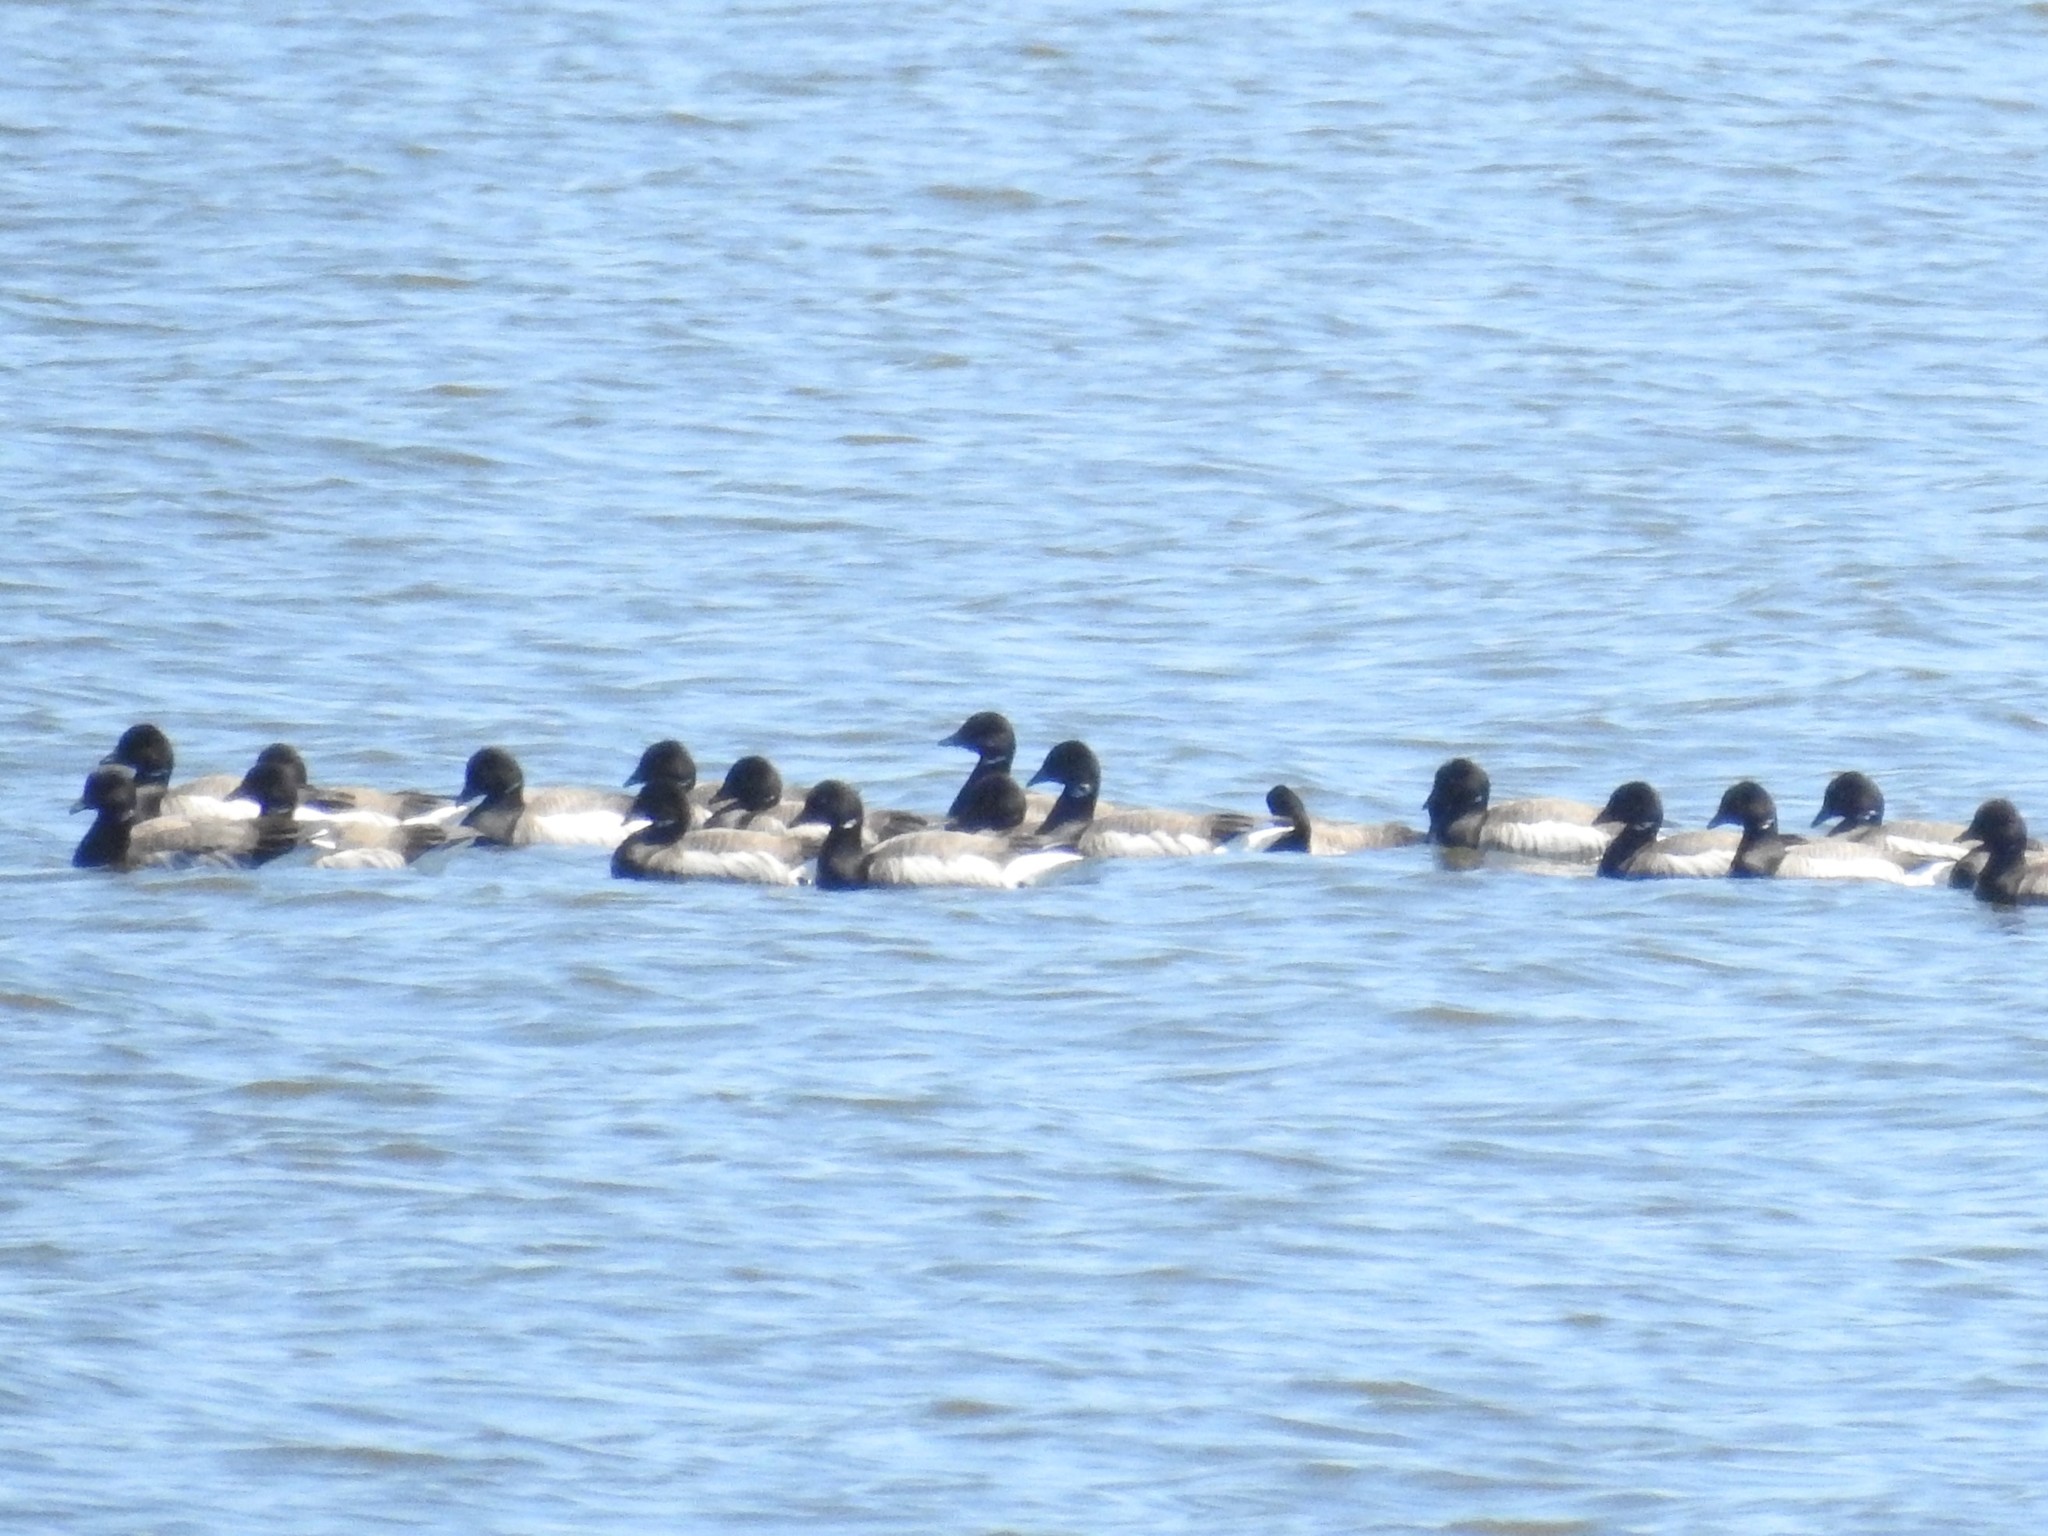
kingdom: Animalia
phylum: Chordata
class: Aves
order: Anseriformes
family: Anatidae
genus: Branta
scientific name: Branta bernicla
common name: Brant goose
